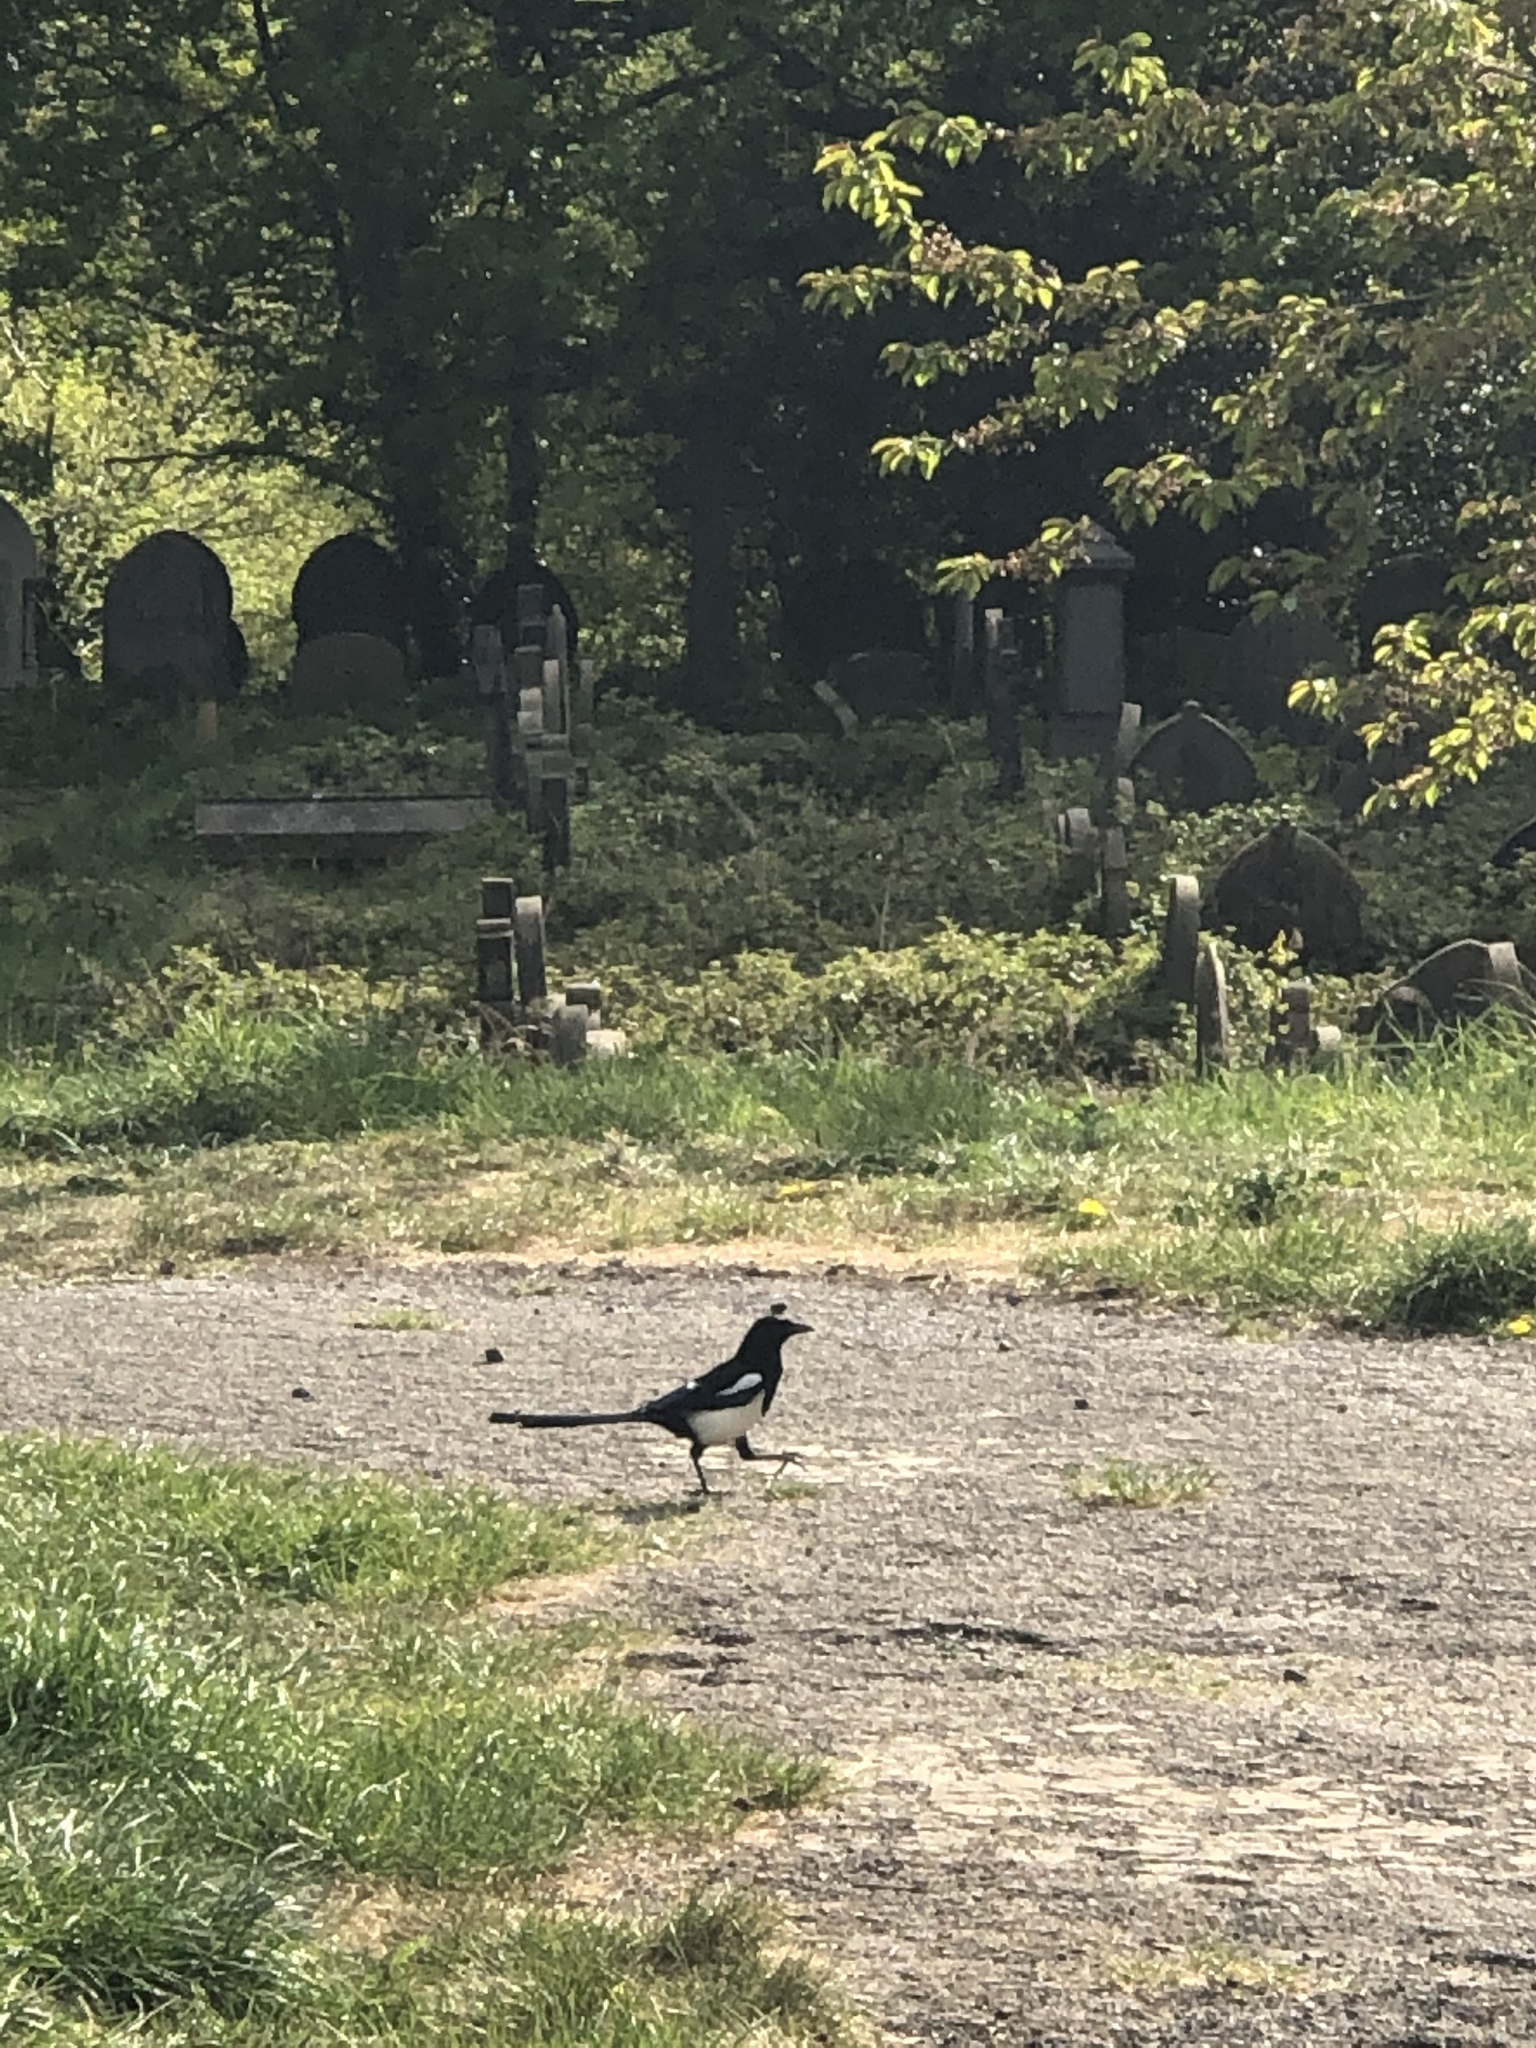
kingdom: Animalia
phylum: Chordata
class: Aves
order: Passeriformes
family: Corvidae
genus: Pica
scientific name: Pica pica
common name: Eurasian magpie
